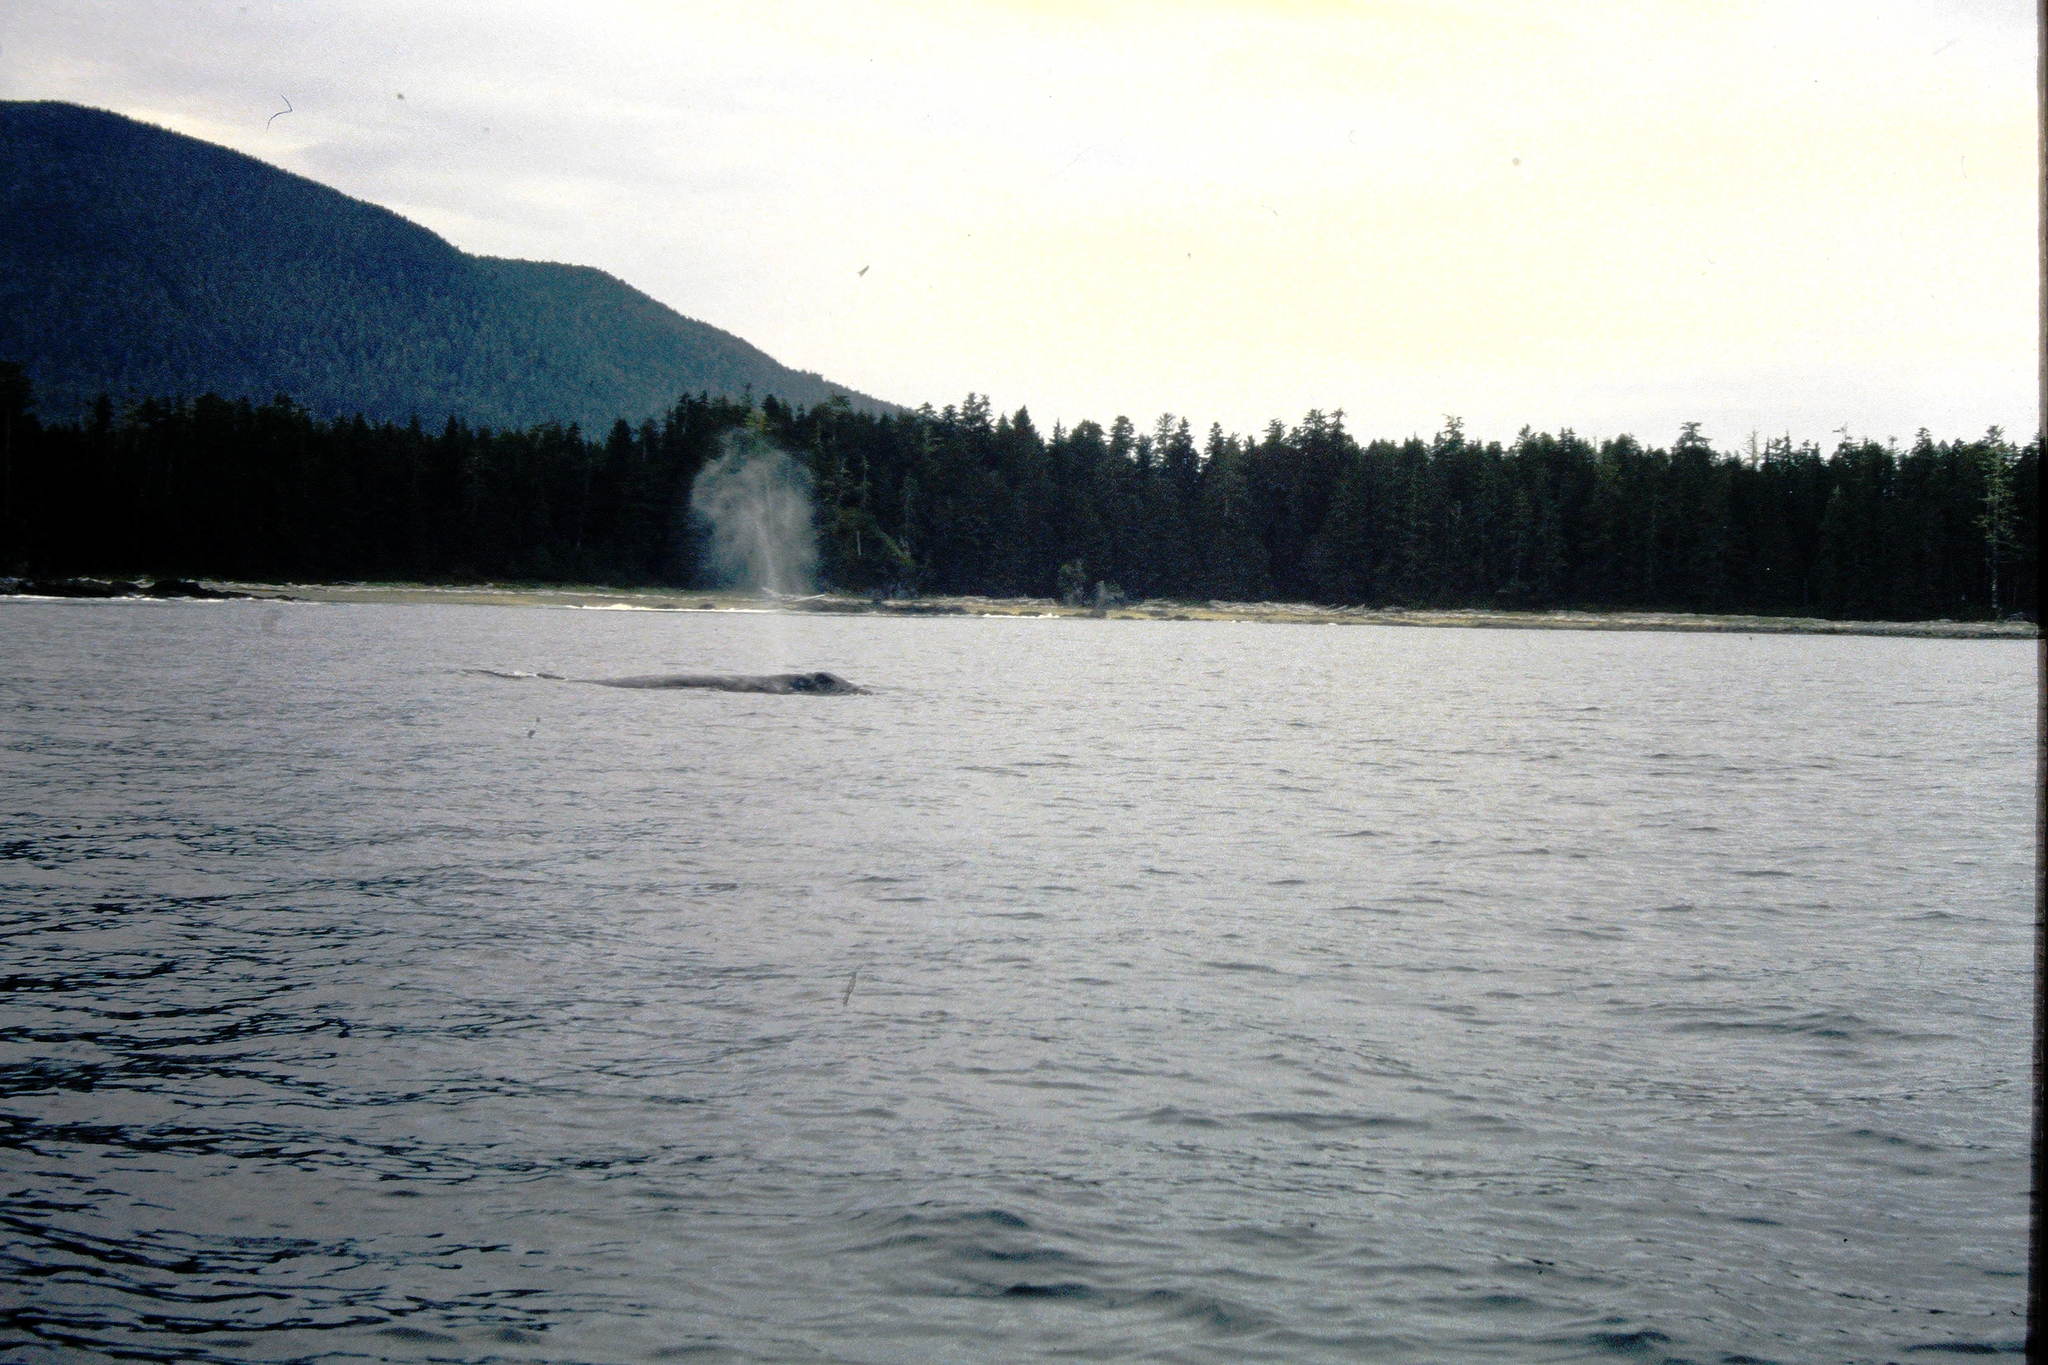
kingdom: Animalia
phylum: Chordata
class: Mammalia
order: Cetacea
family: Eschrichtiidae
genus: Eschrichtius
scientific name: Eschrichtius robustus
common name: Gray whale
